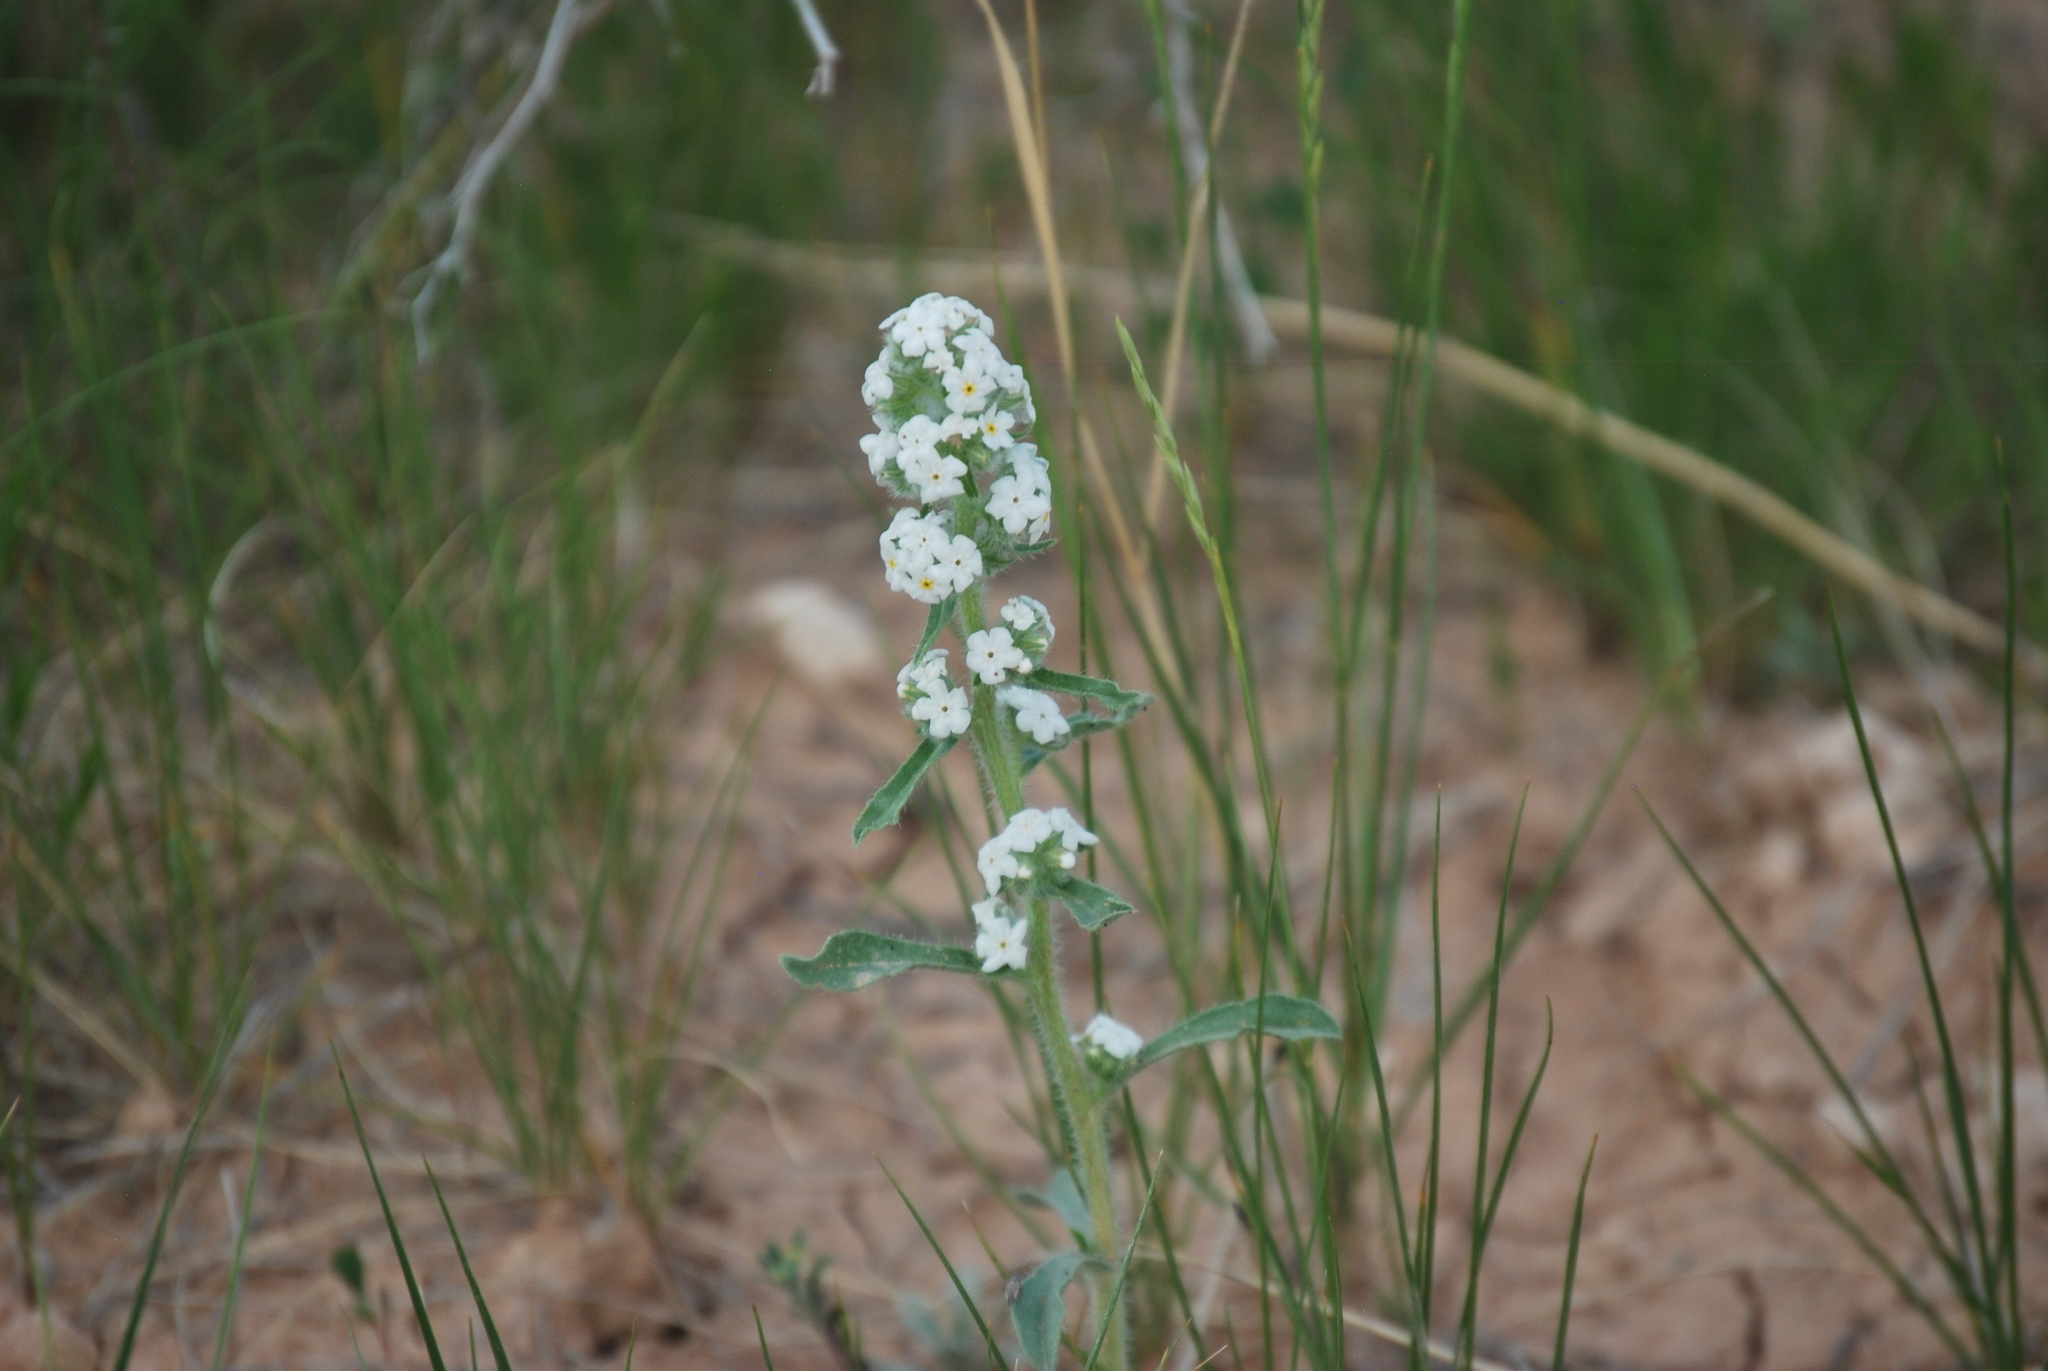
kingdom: Plantae
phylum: Tracheophyta
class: Magnoliopsida
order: Boraginales
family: Boraginaceae
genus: Oreocarya
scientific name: Oreocarya glomerata
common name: Macoun's cryptantha
